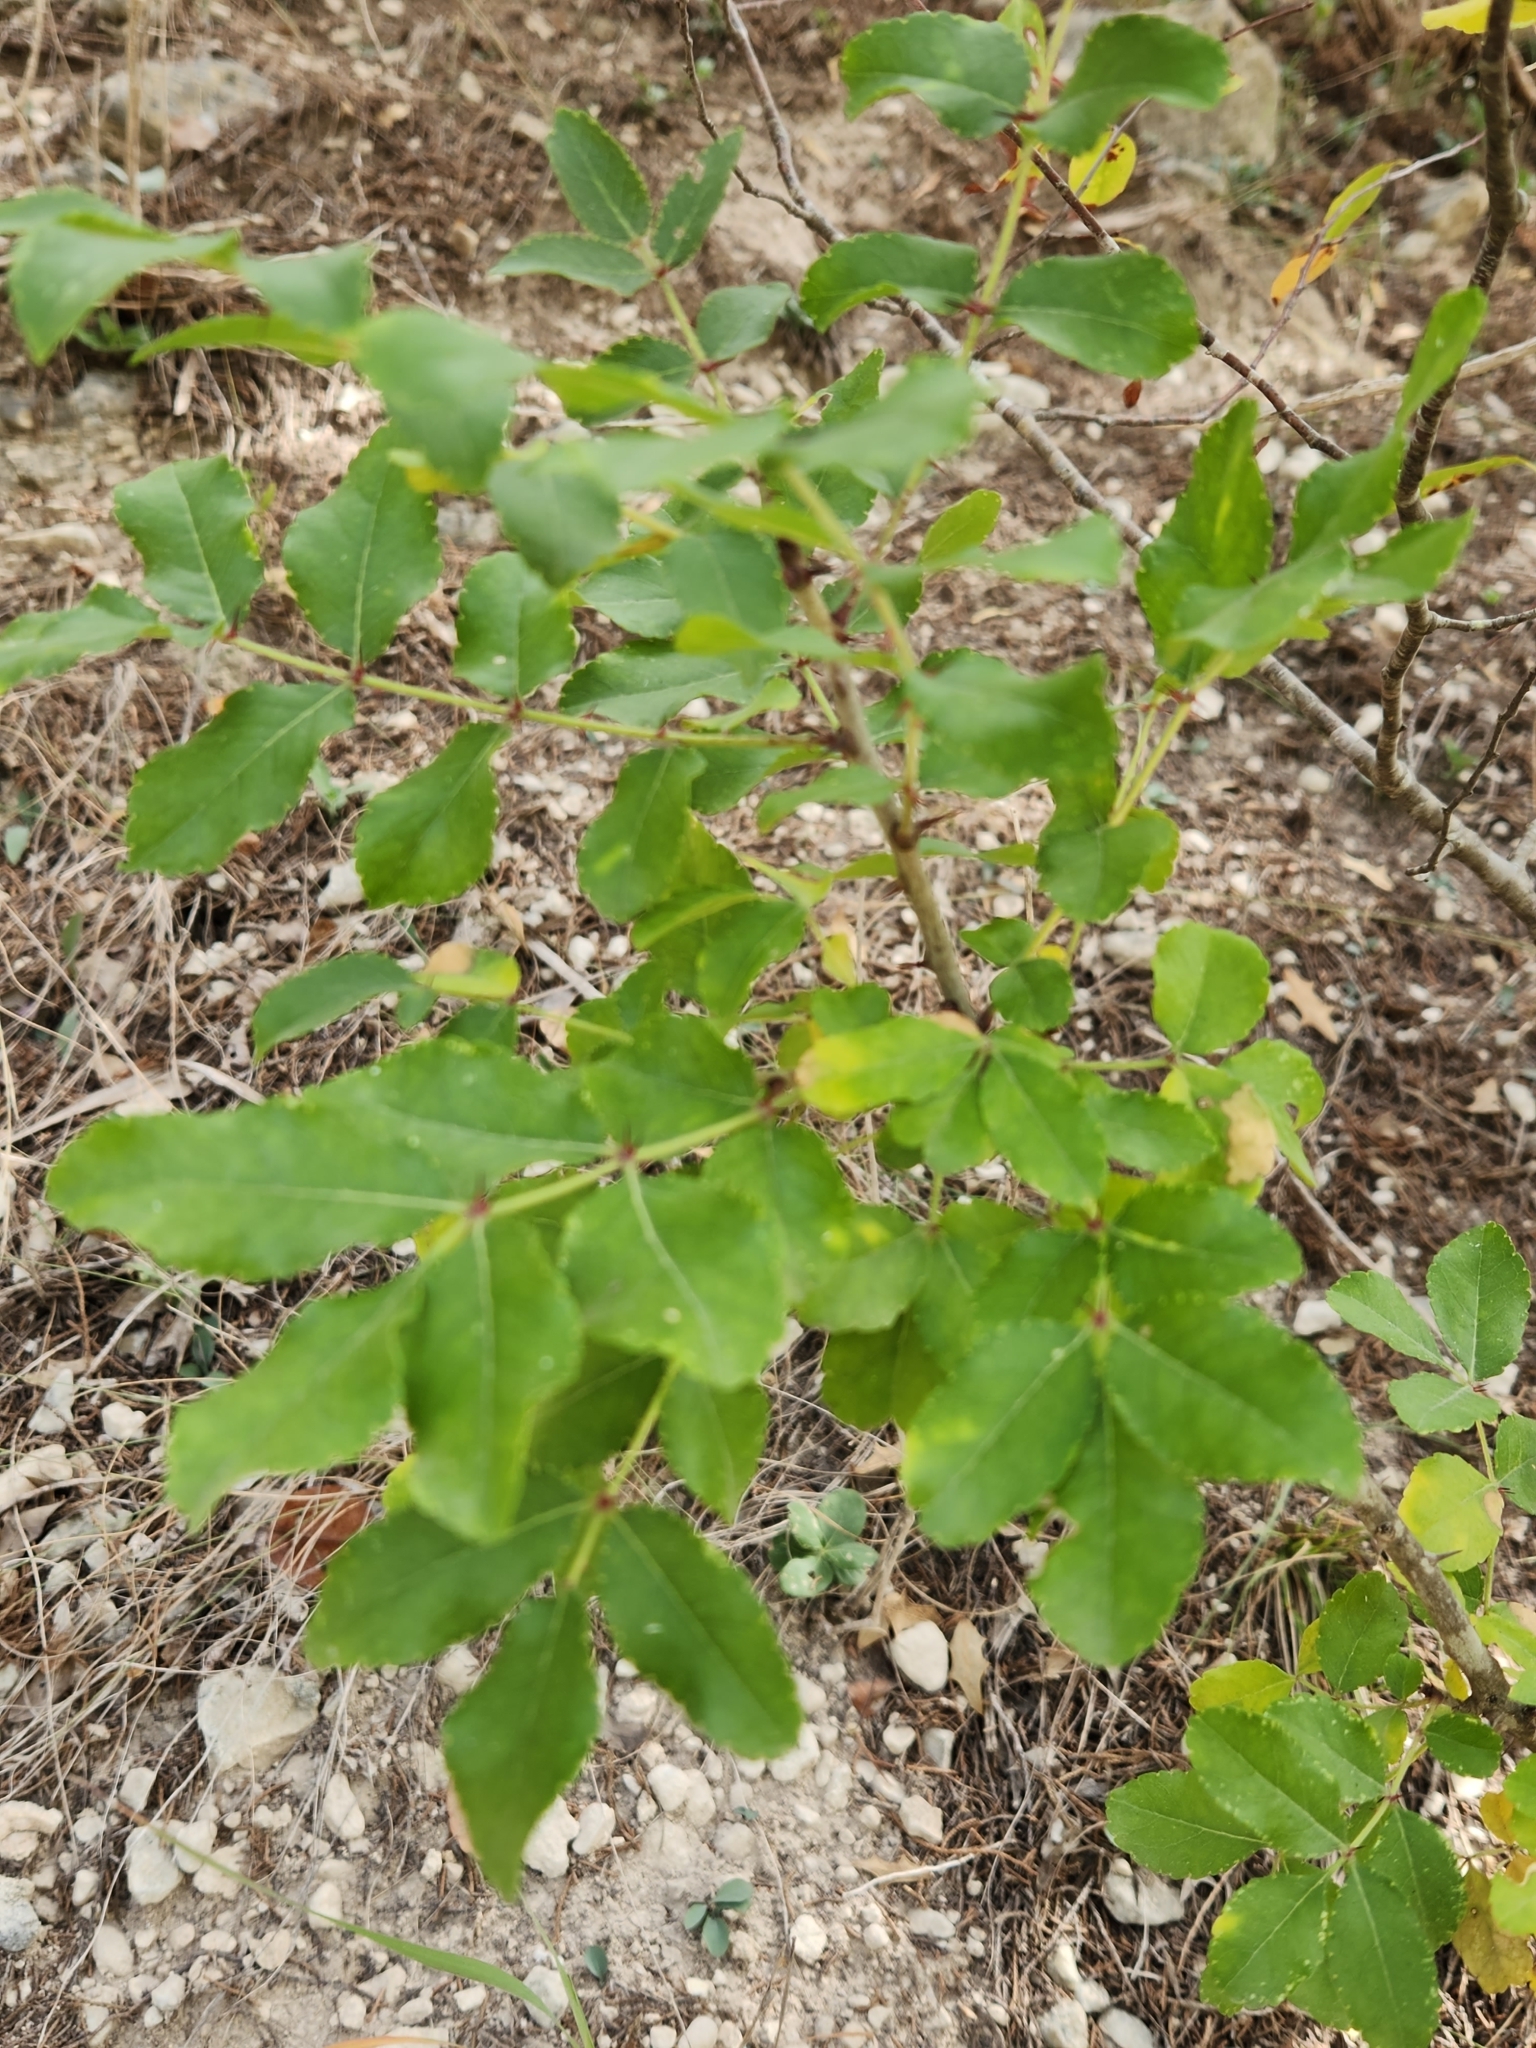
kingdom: Plantae
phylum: Tracheophyta
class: Magnoliopsida
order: Sapindales
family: Rutaceae
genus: Zanthoxylum
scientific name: Zanthoxylum clava-herculis
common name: Hercules'-club
